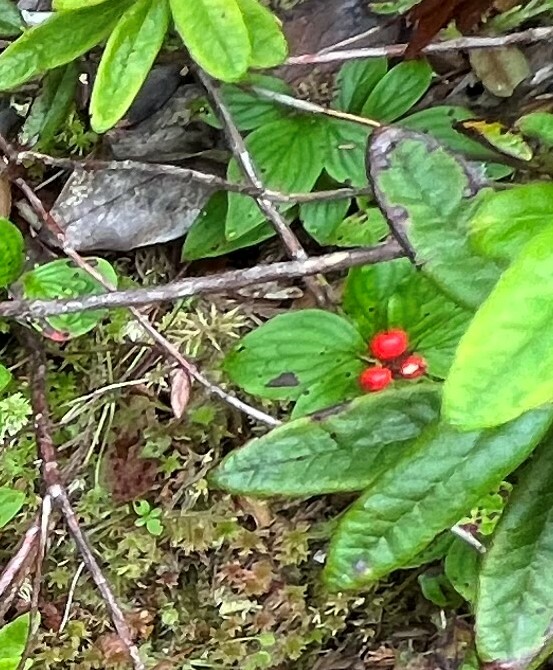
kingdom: Plantae
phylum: Tracheophyta
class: Magnoliopsida
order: Cornales
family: Cornaceae
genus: Cornus
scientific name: Cornus unalaschkensis
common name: Alaska bunchberry
